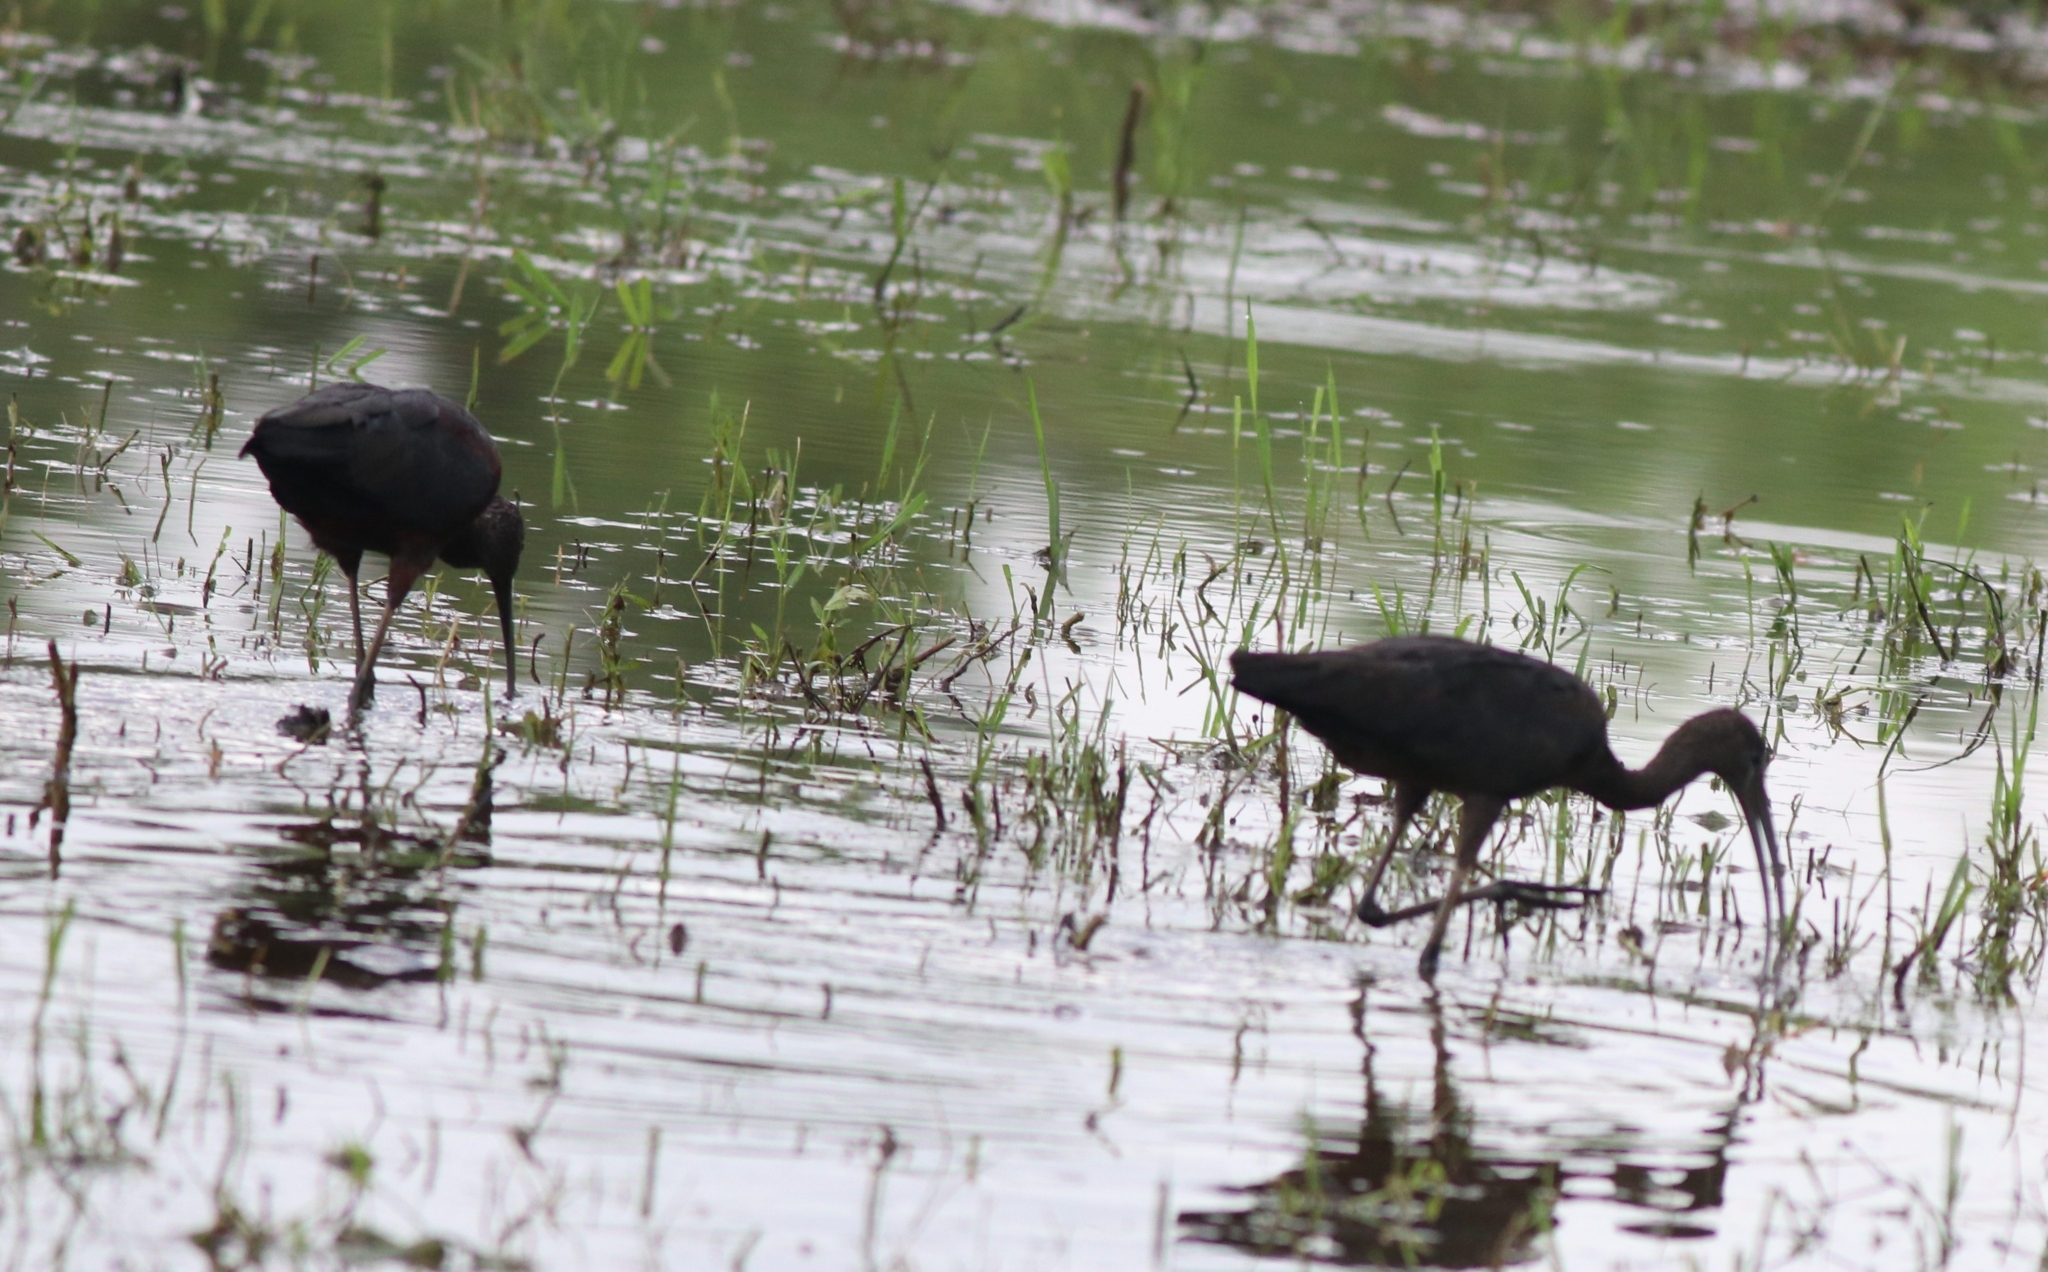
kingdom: Animalia
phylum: Chordata
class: Aves
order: Pelecaniformes
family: Threskiornithidae
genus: Plegadis
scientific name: Plegadis falcinellus
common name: Glossy ibis
